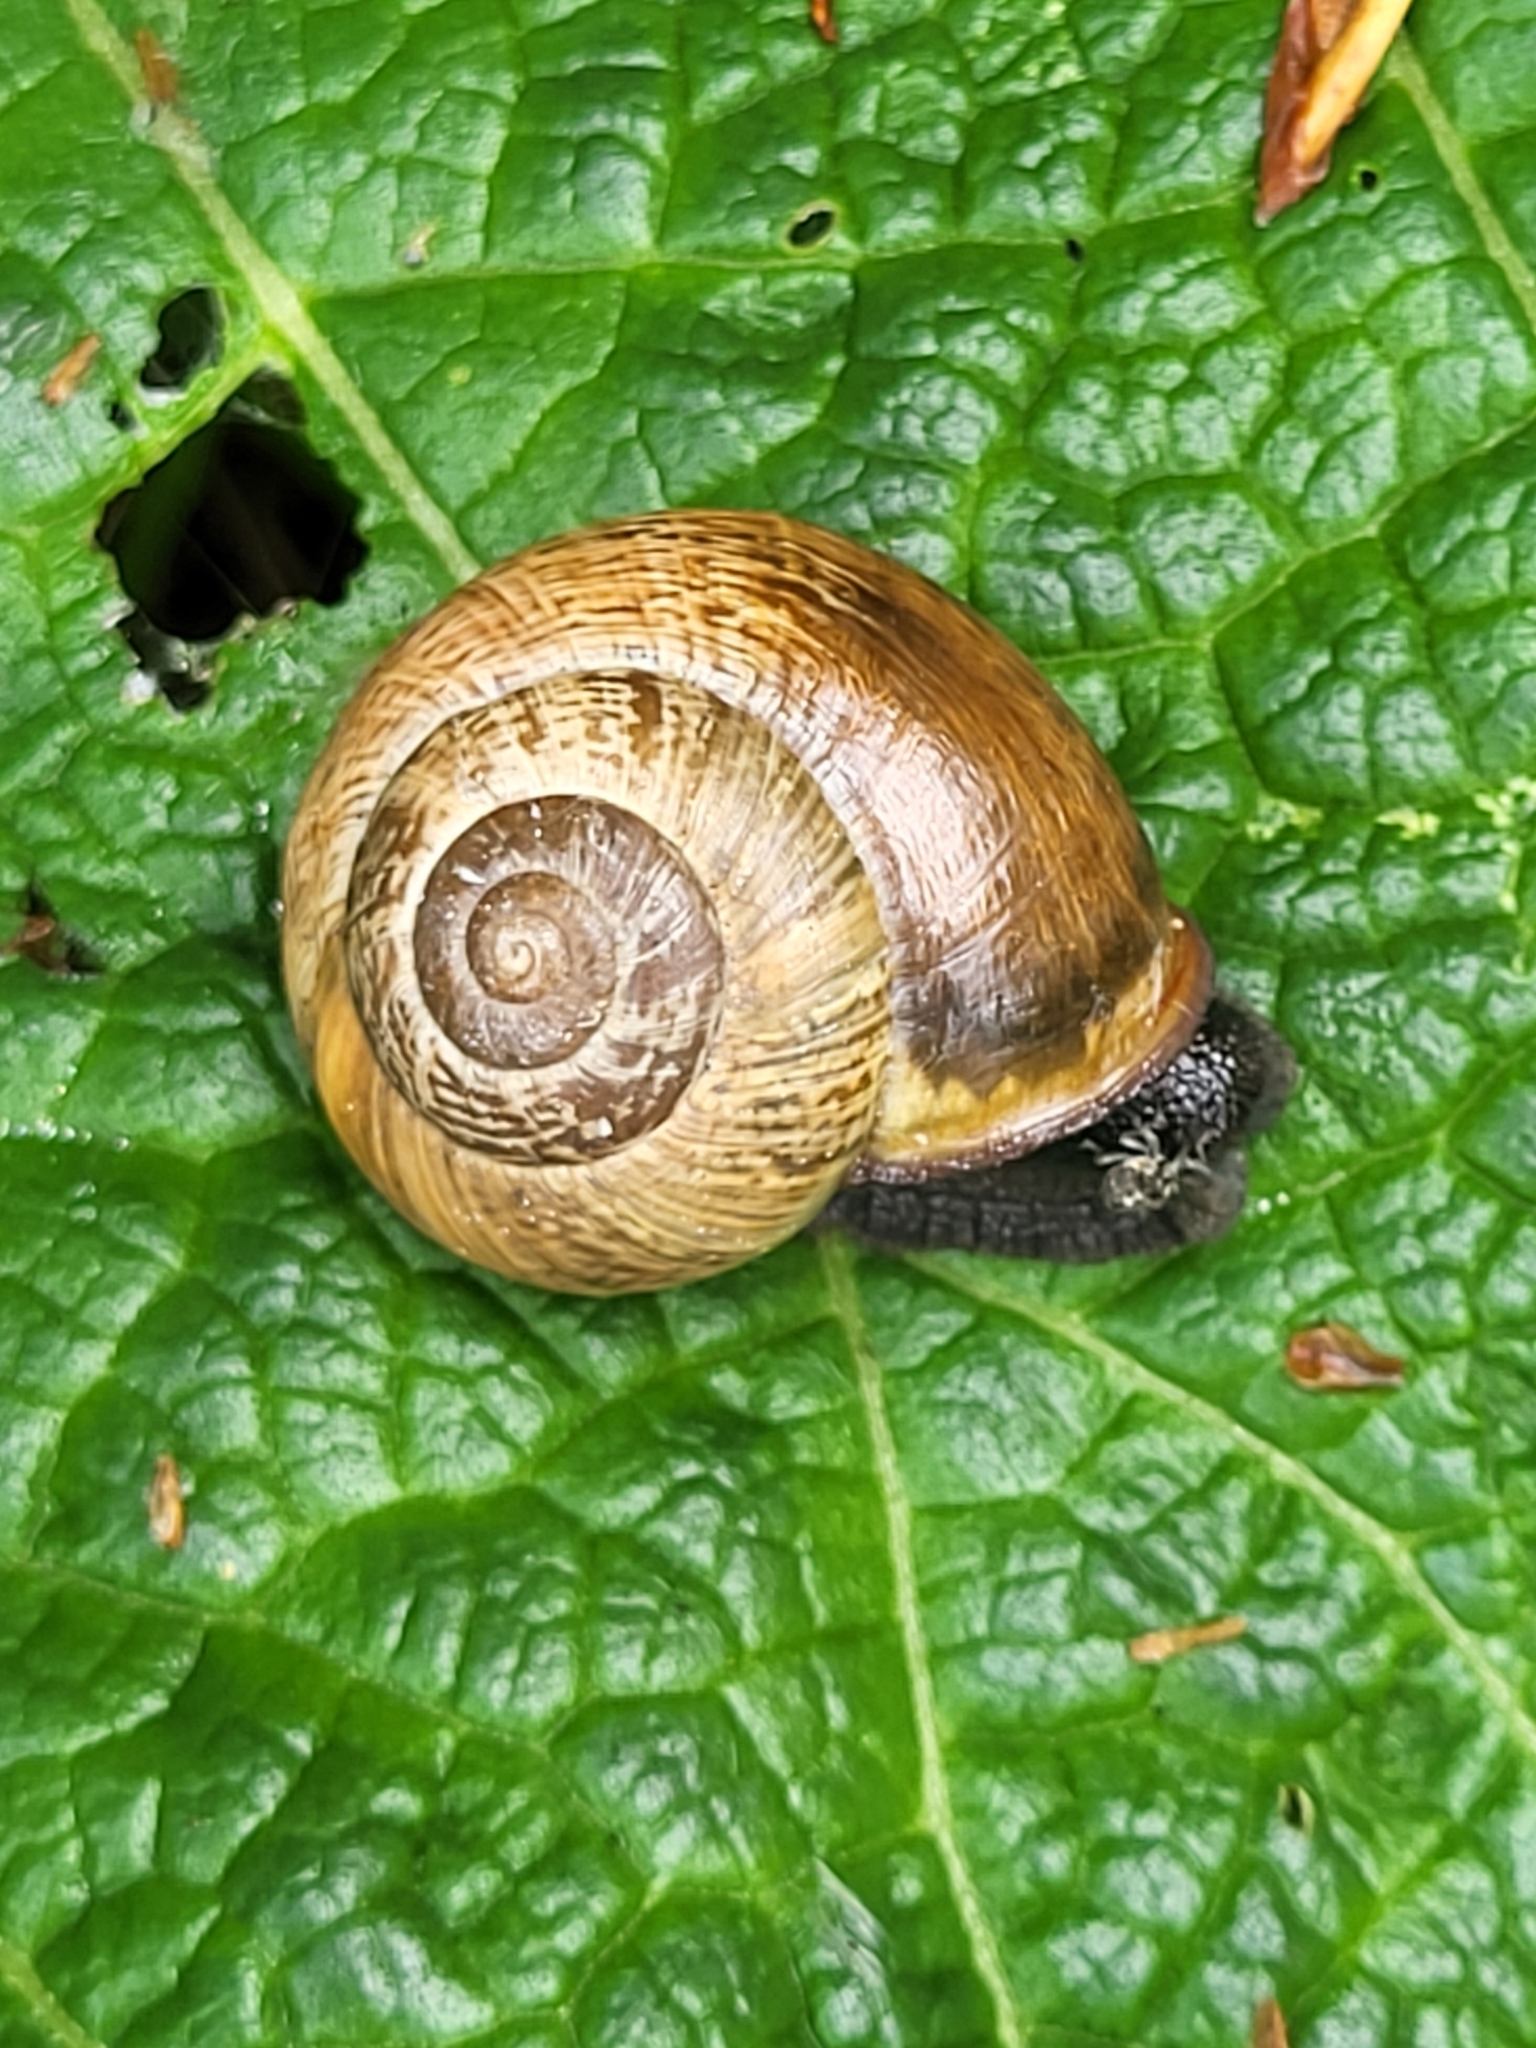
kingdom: Animalia
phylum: Mollusca
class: Gastropoda
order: Stylommatophora
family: Helicidae
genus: Arianta
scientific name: Arianta arbustorum
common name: Copse snail
